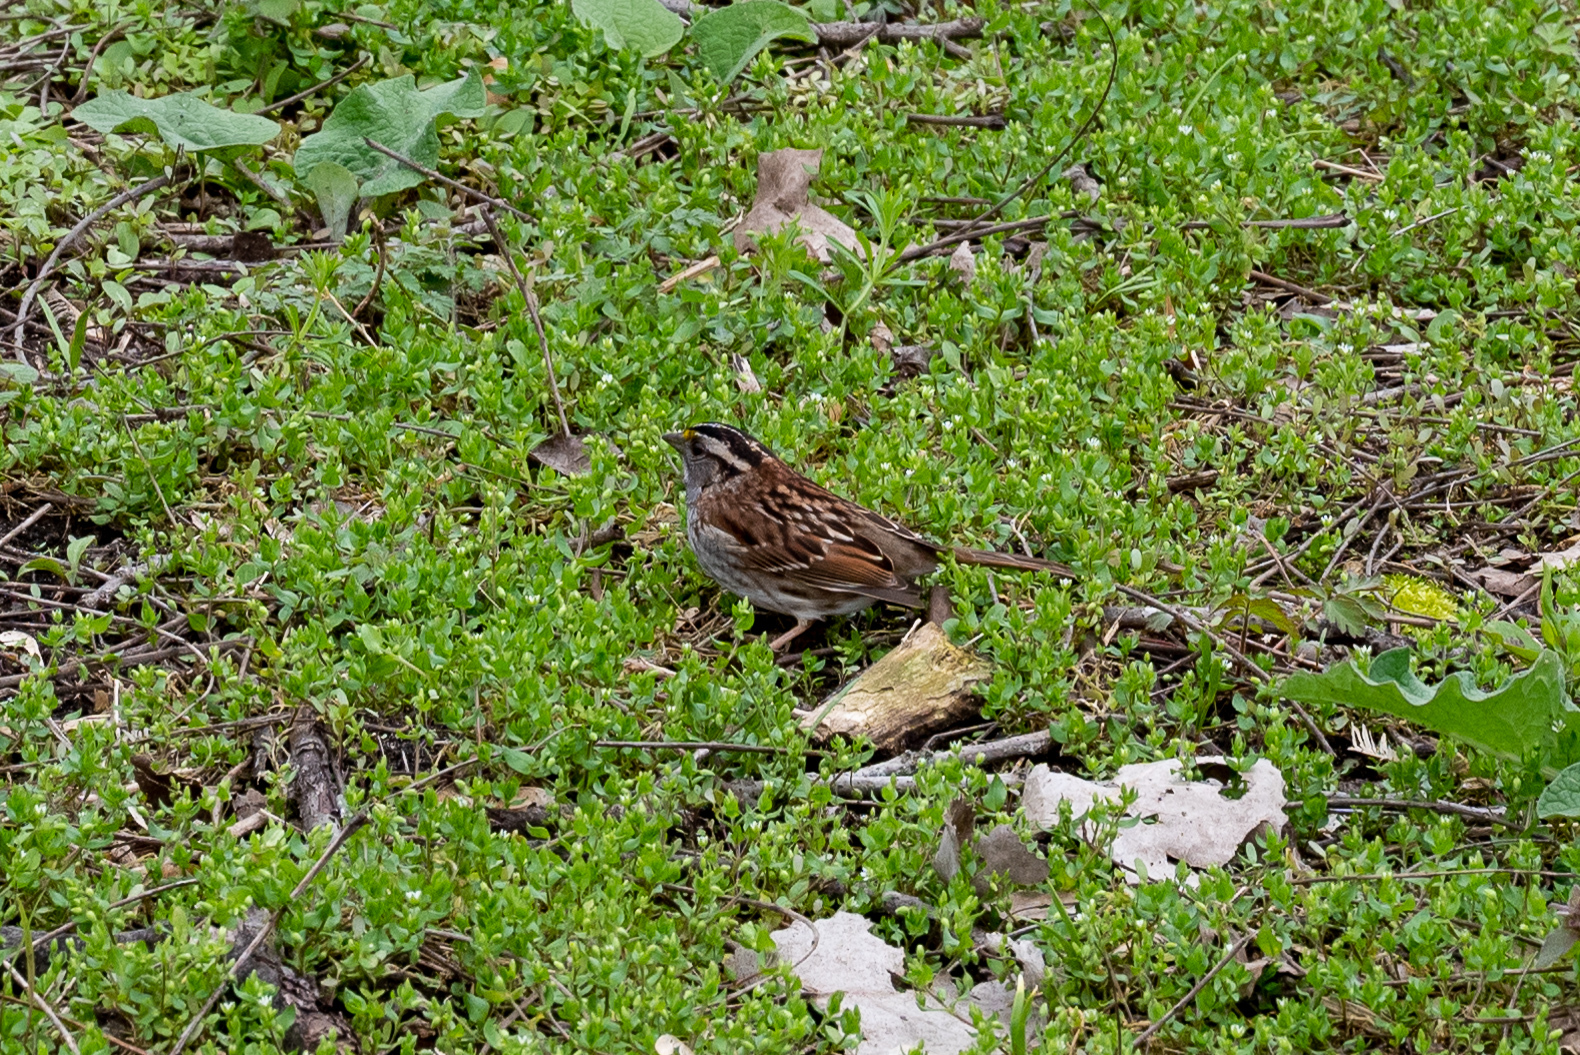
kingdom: Animalia
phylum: Chordata
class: Aves
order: Passeriformes
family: Passerellidae
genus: Zonotrichia
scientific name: Zonotrichia albicollis
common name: White-throated sparrow
